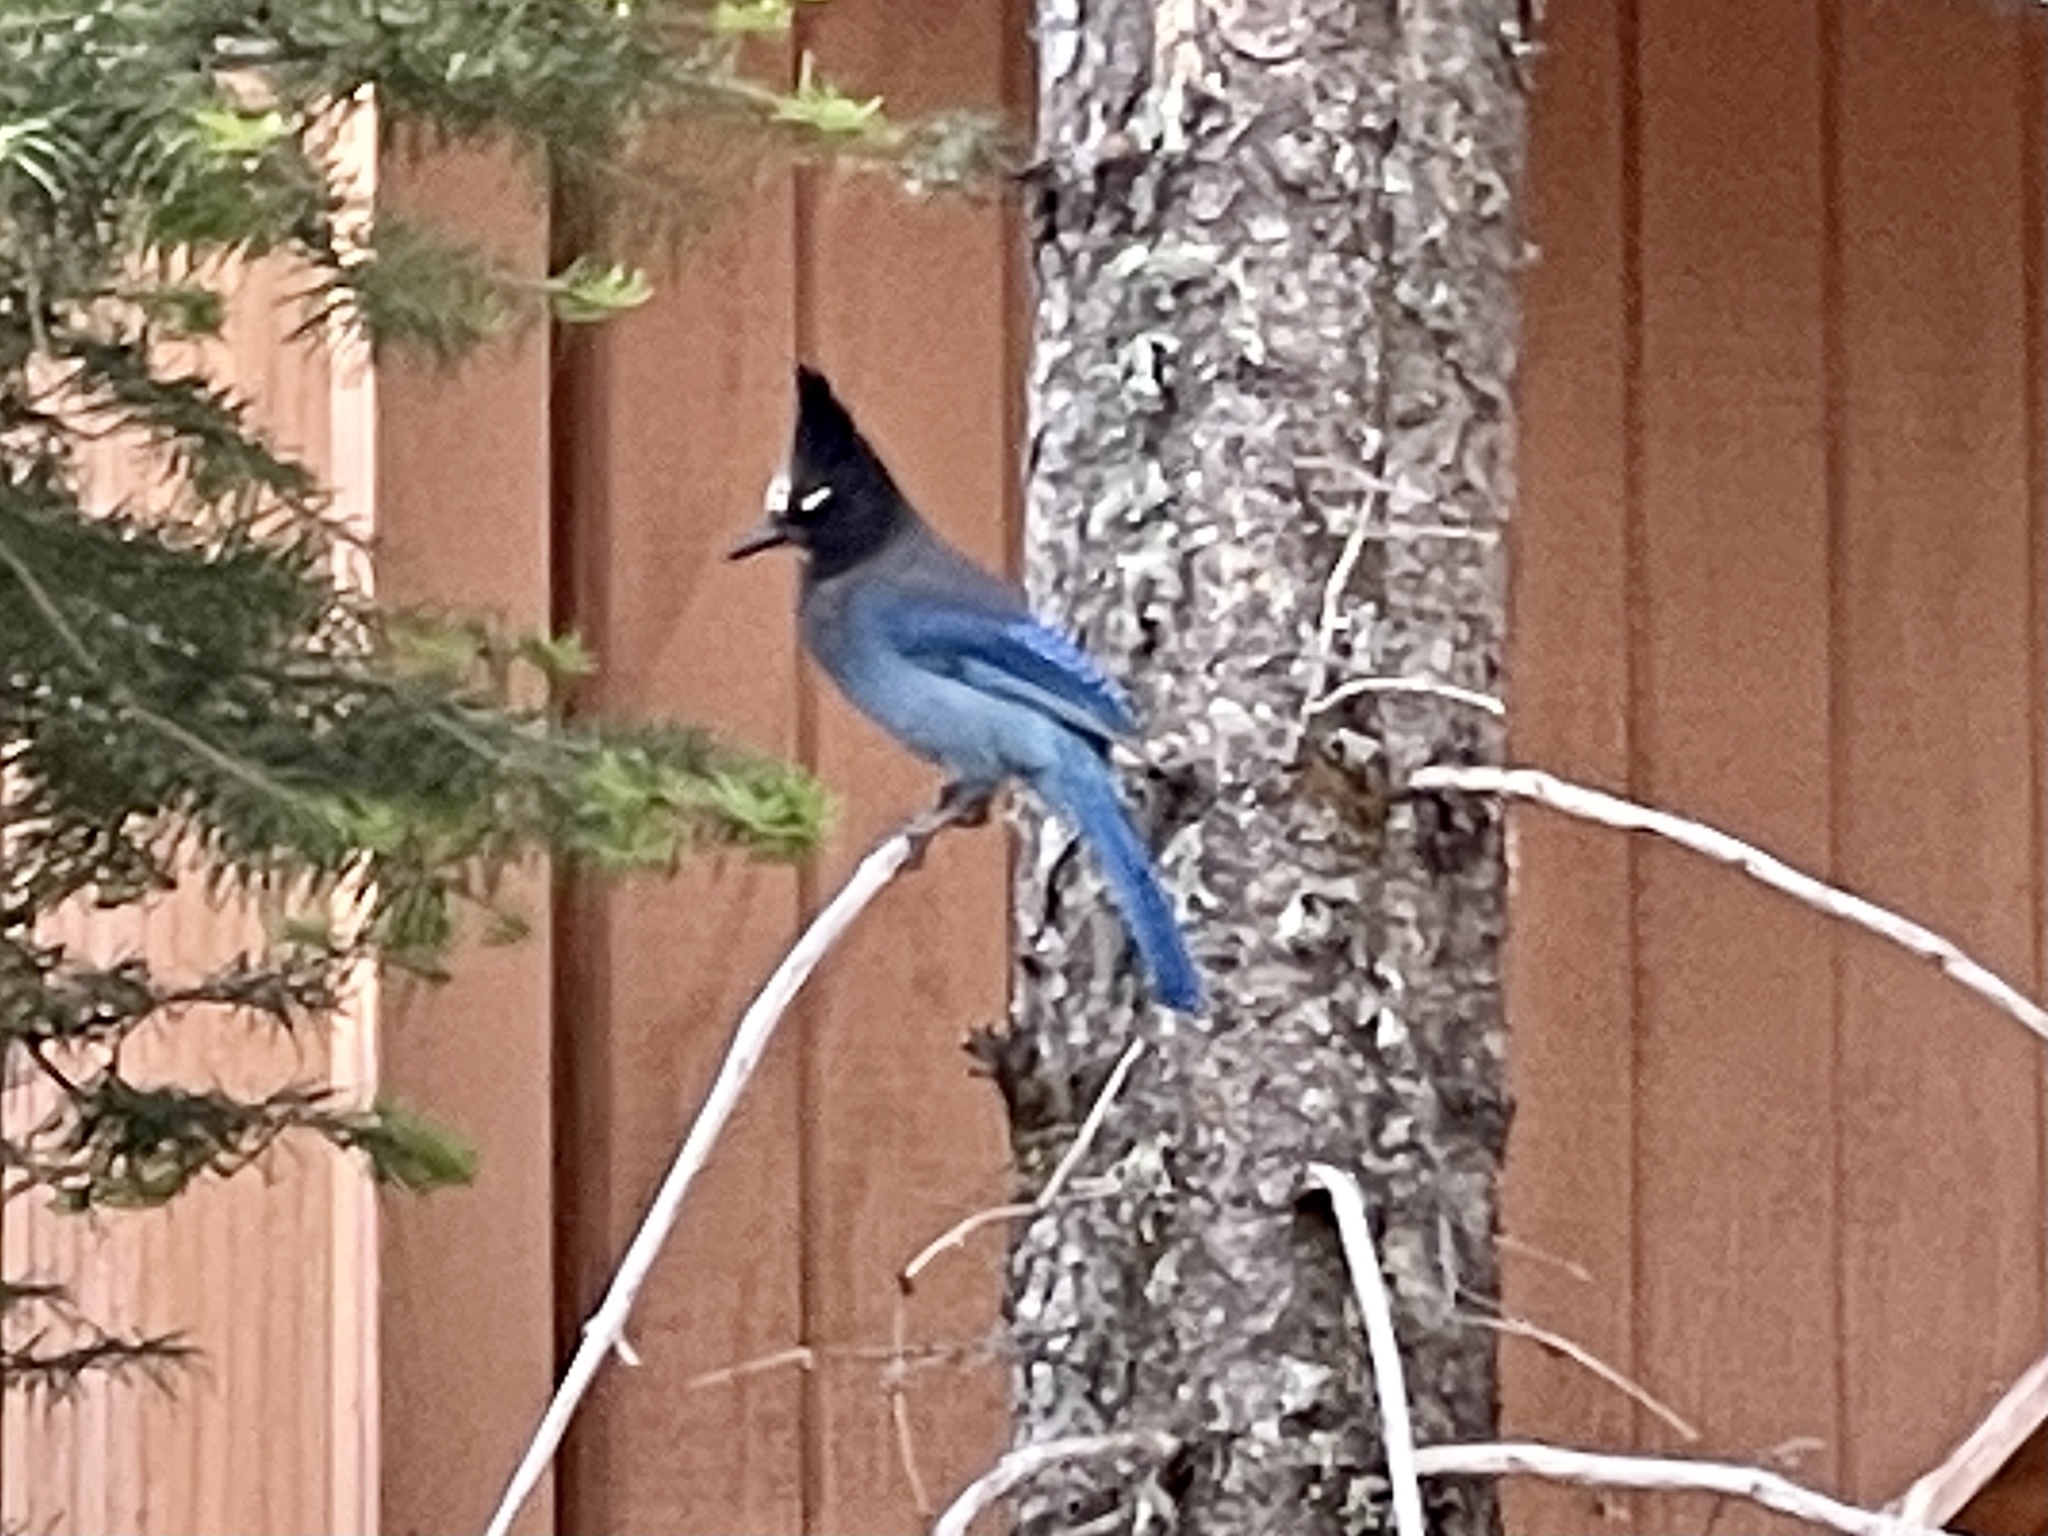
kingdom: Animalia
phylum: Chordata
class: Aves
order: Passeriformes
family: Corvidae
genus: Cyanocitta
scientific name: Cyanocitta stelleri
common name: Steller's jay
